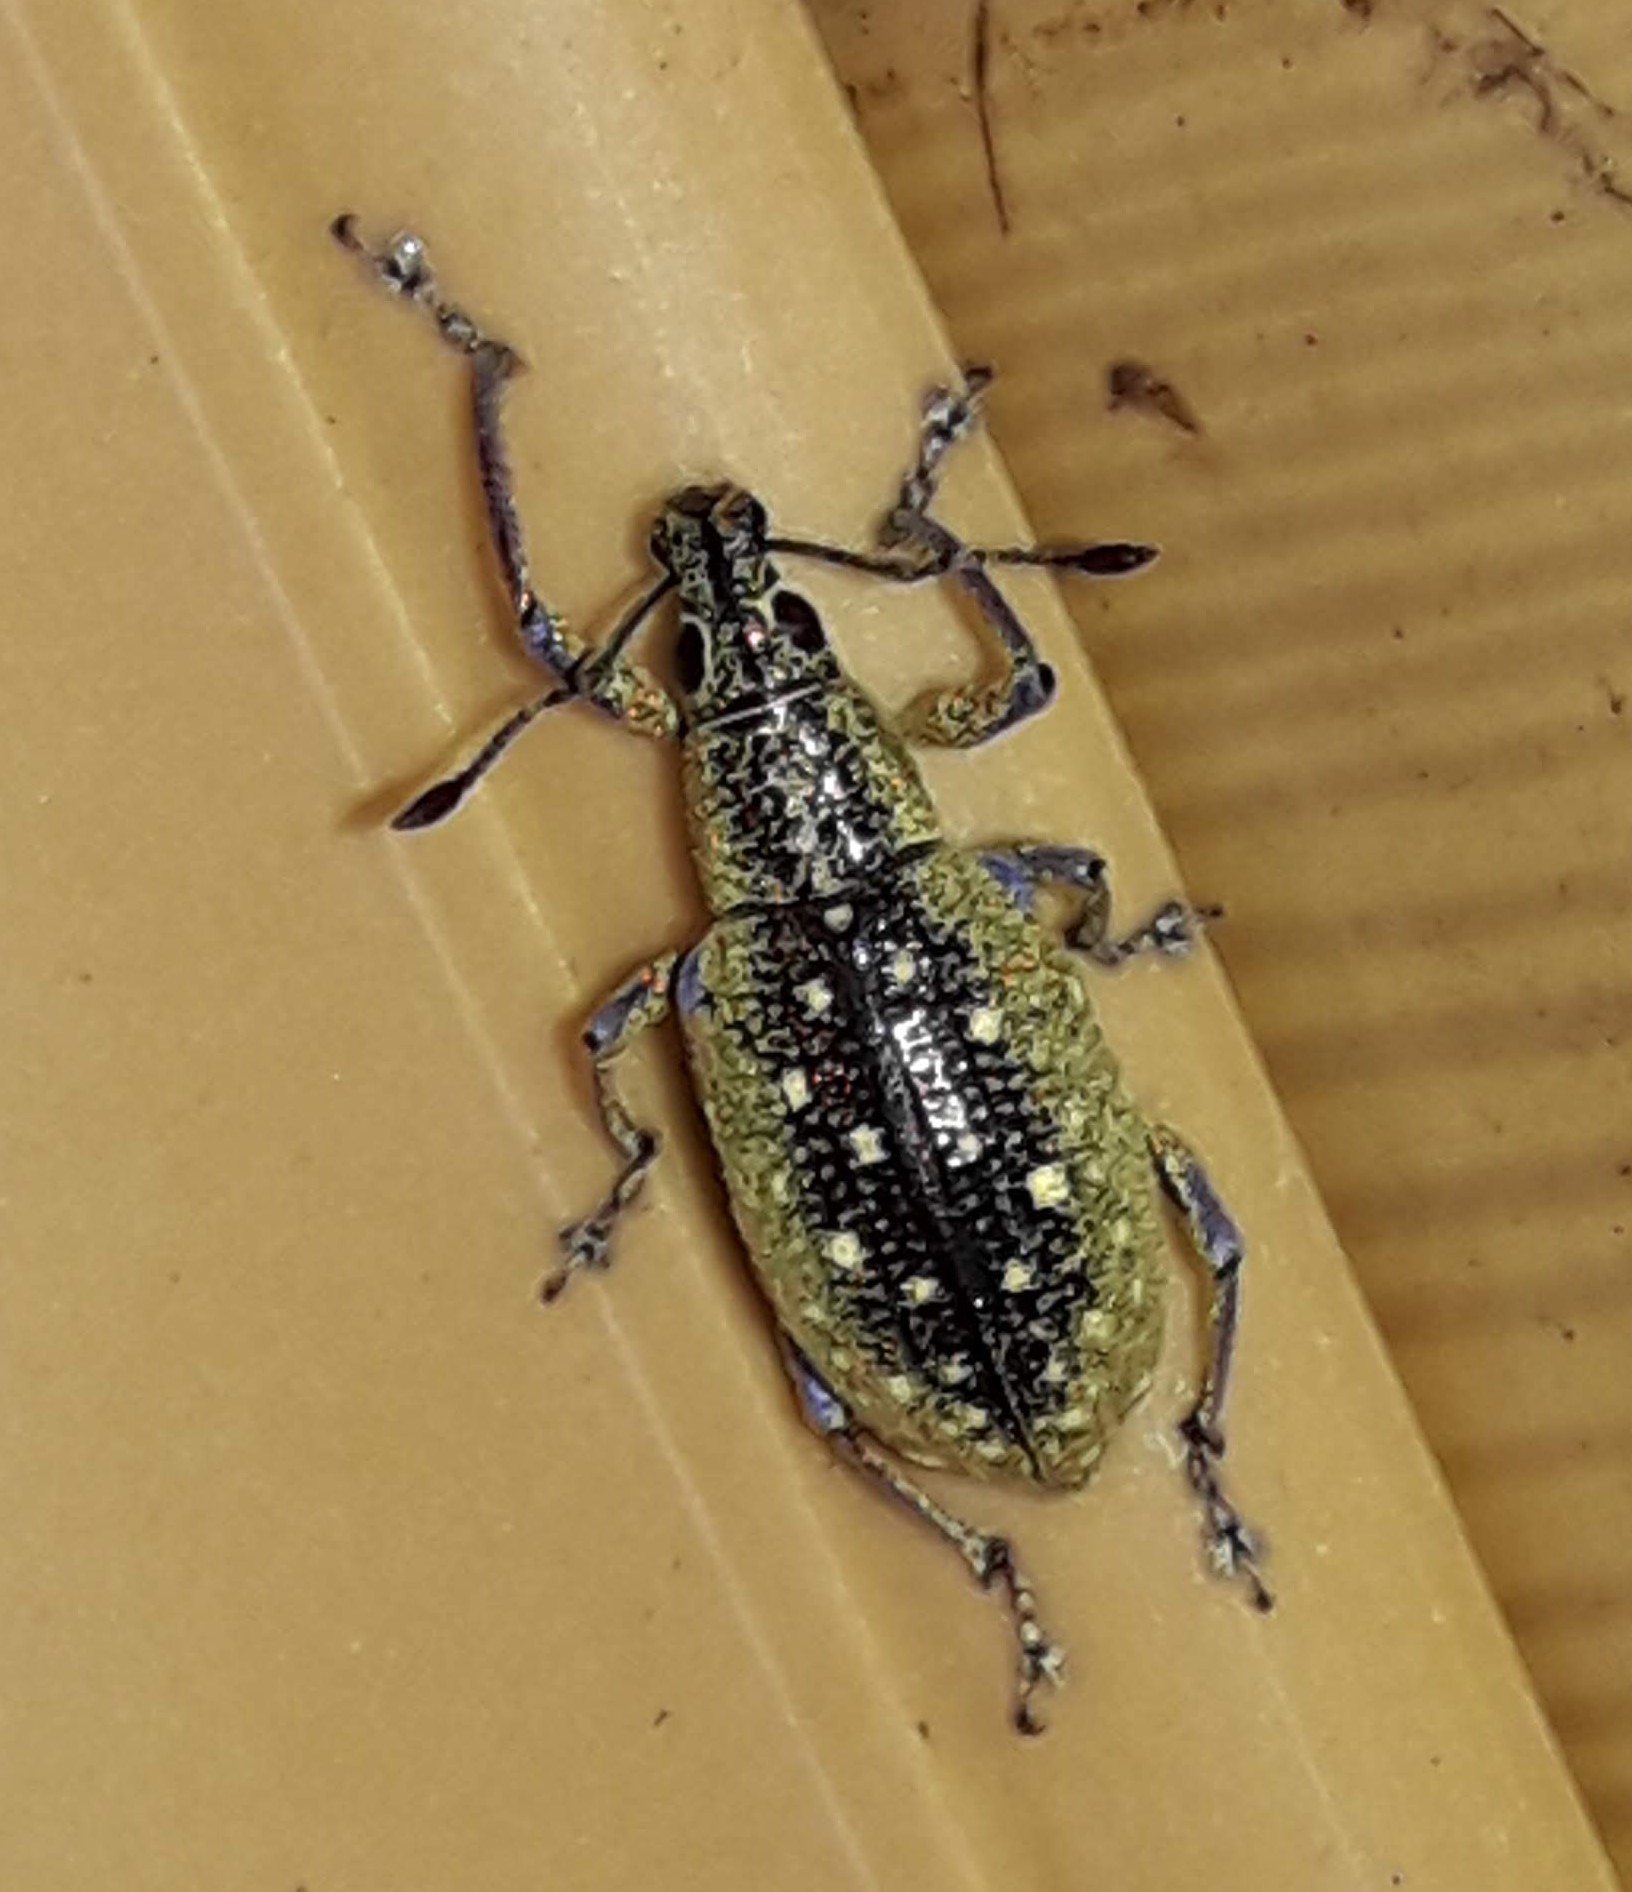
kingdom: Animalia
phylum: Arthropoda
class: Insecta
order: Coleoptera
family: Curculionidae
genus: Exophthalmus
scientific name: Exophthalmus jekelianus
